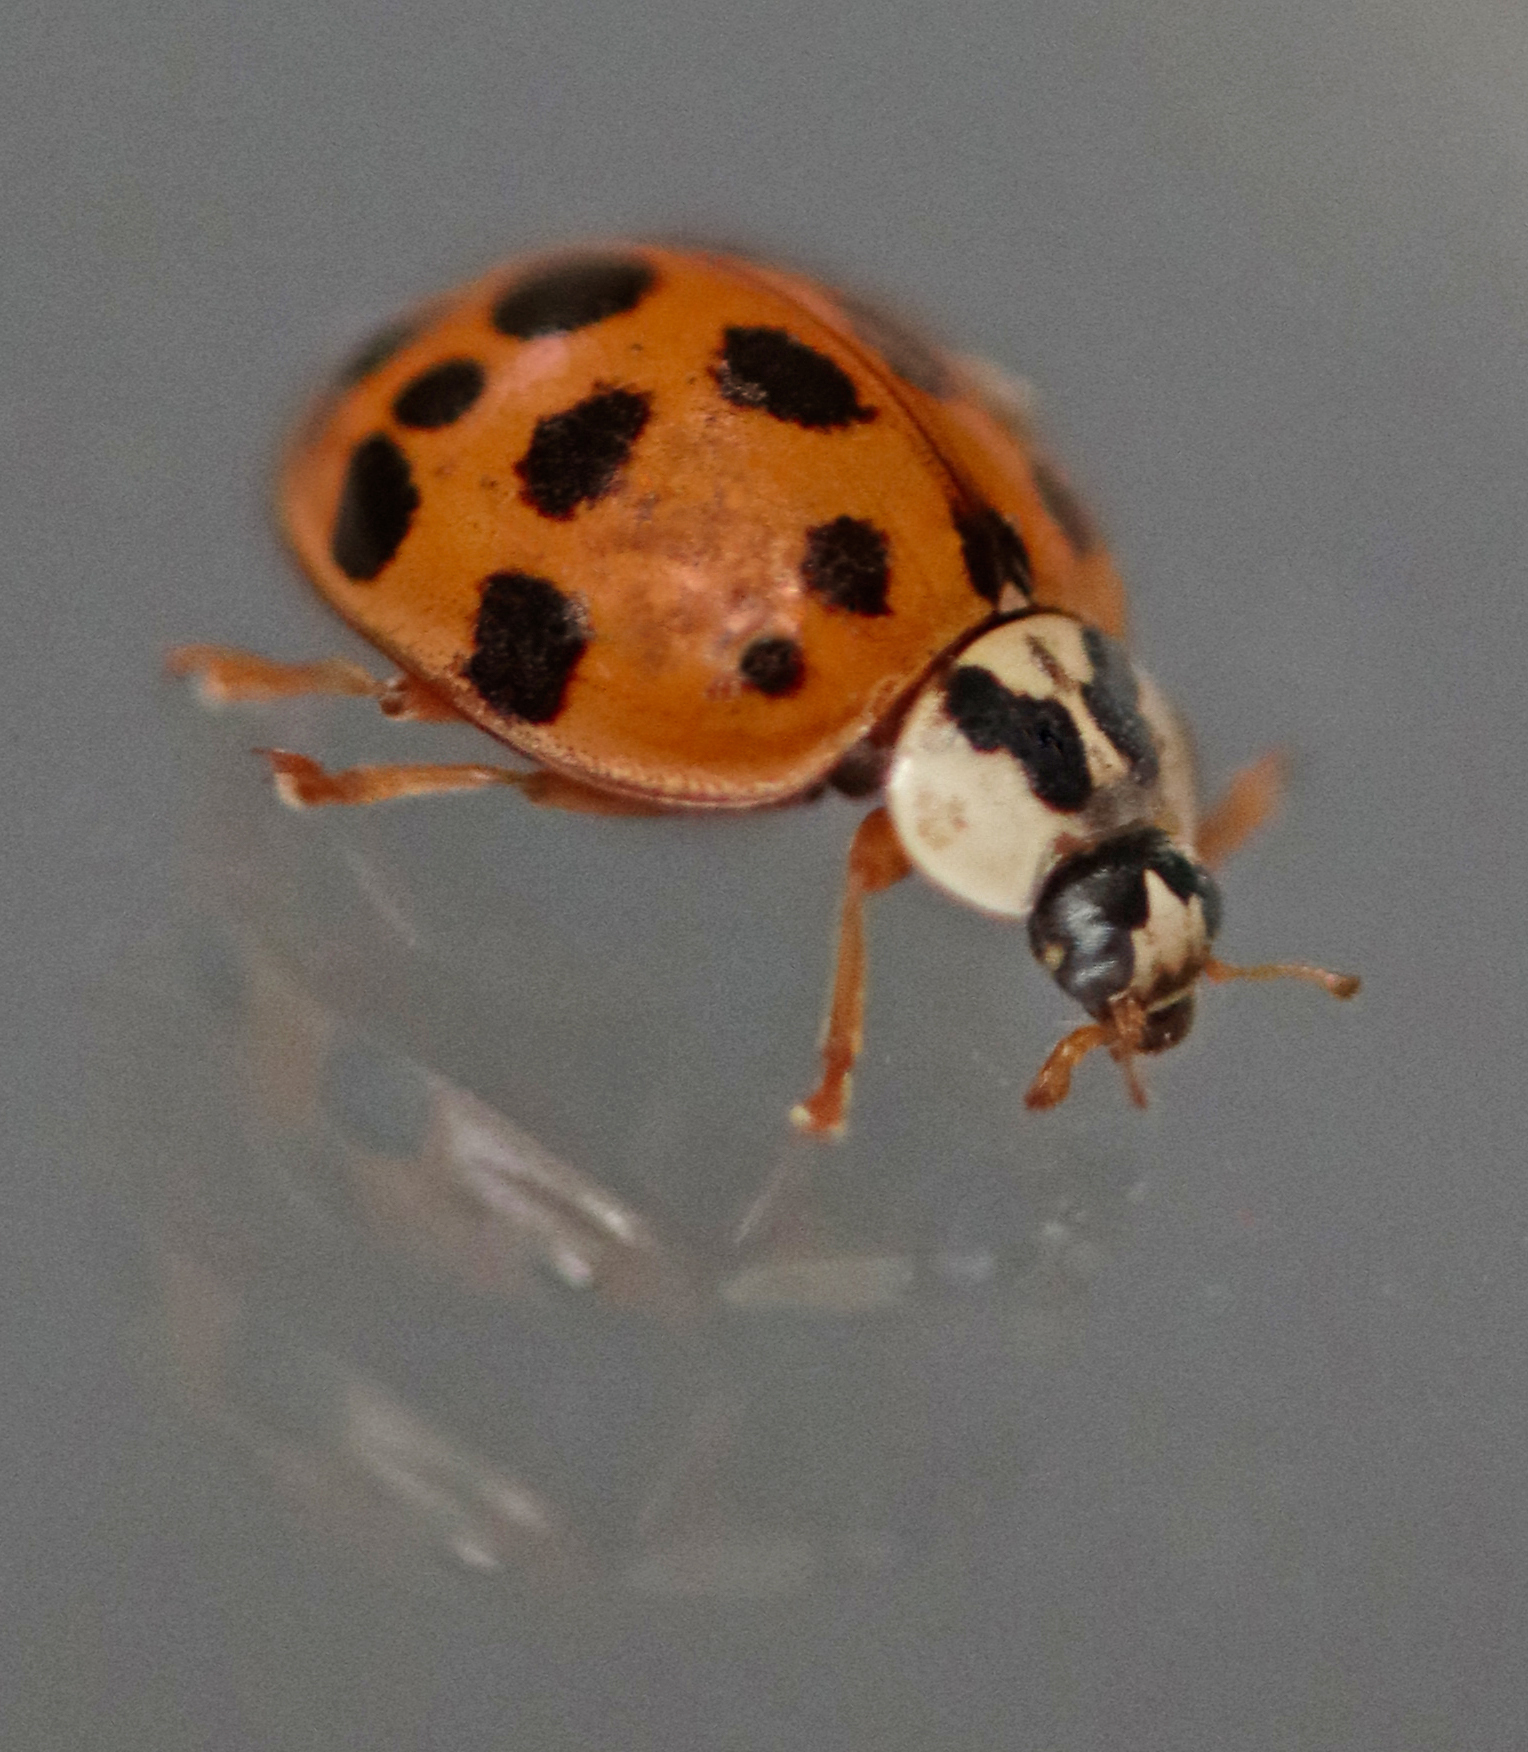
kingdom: Animalia
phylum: Arthropoda
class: Insecta
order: Coleoptera
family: Coccinellidae
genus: Harmonia
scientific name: Harmonia axyridis
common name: Harlequin ladybird
